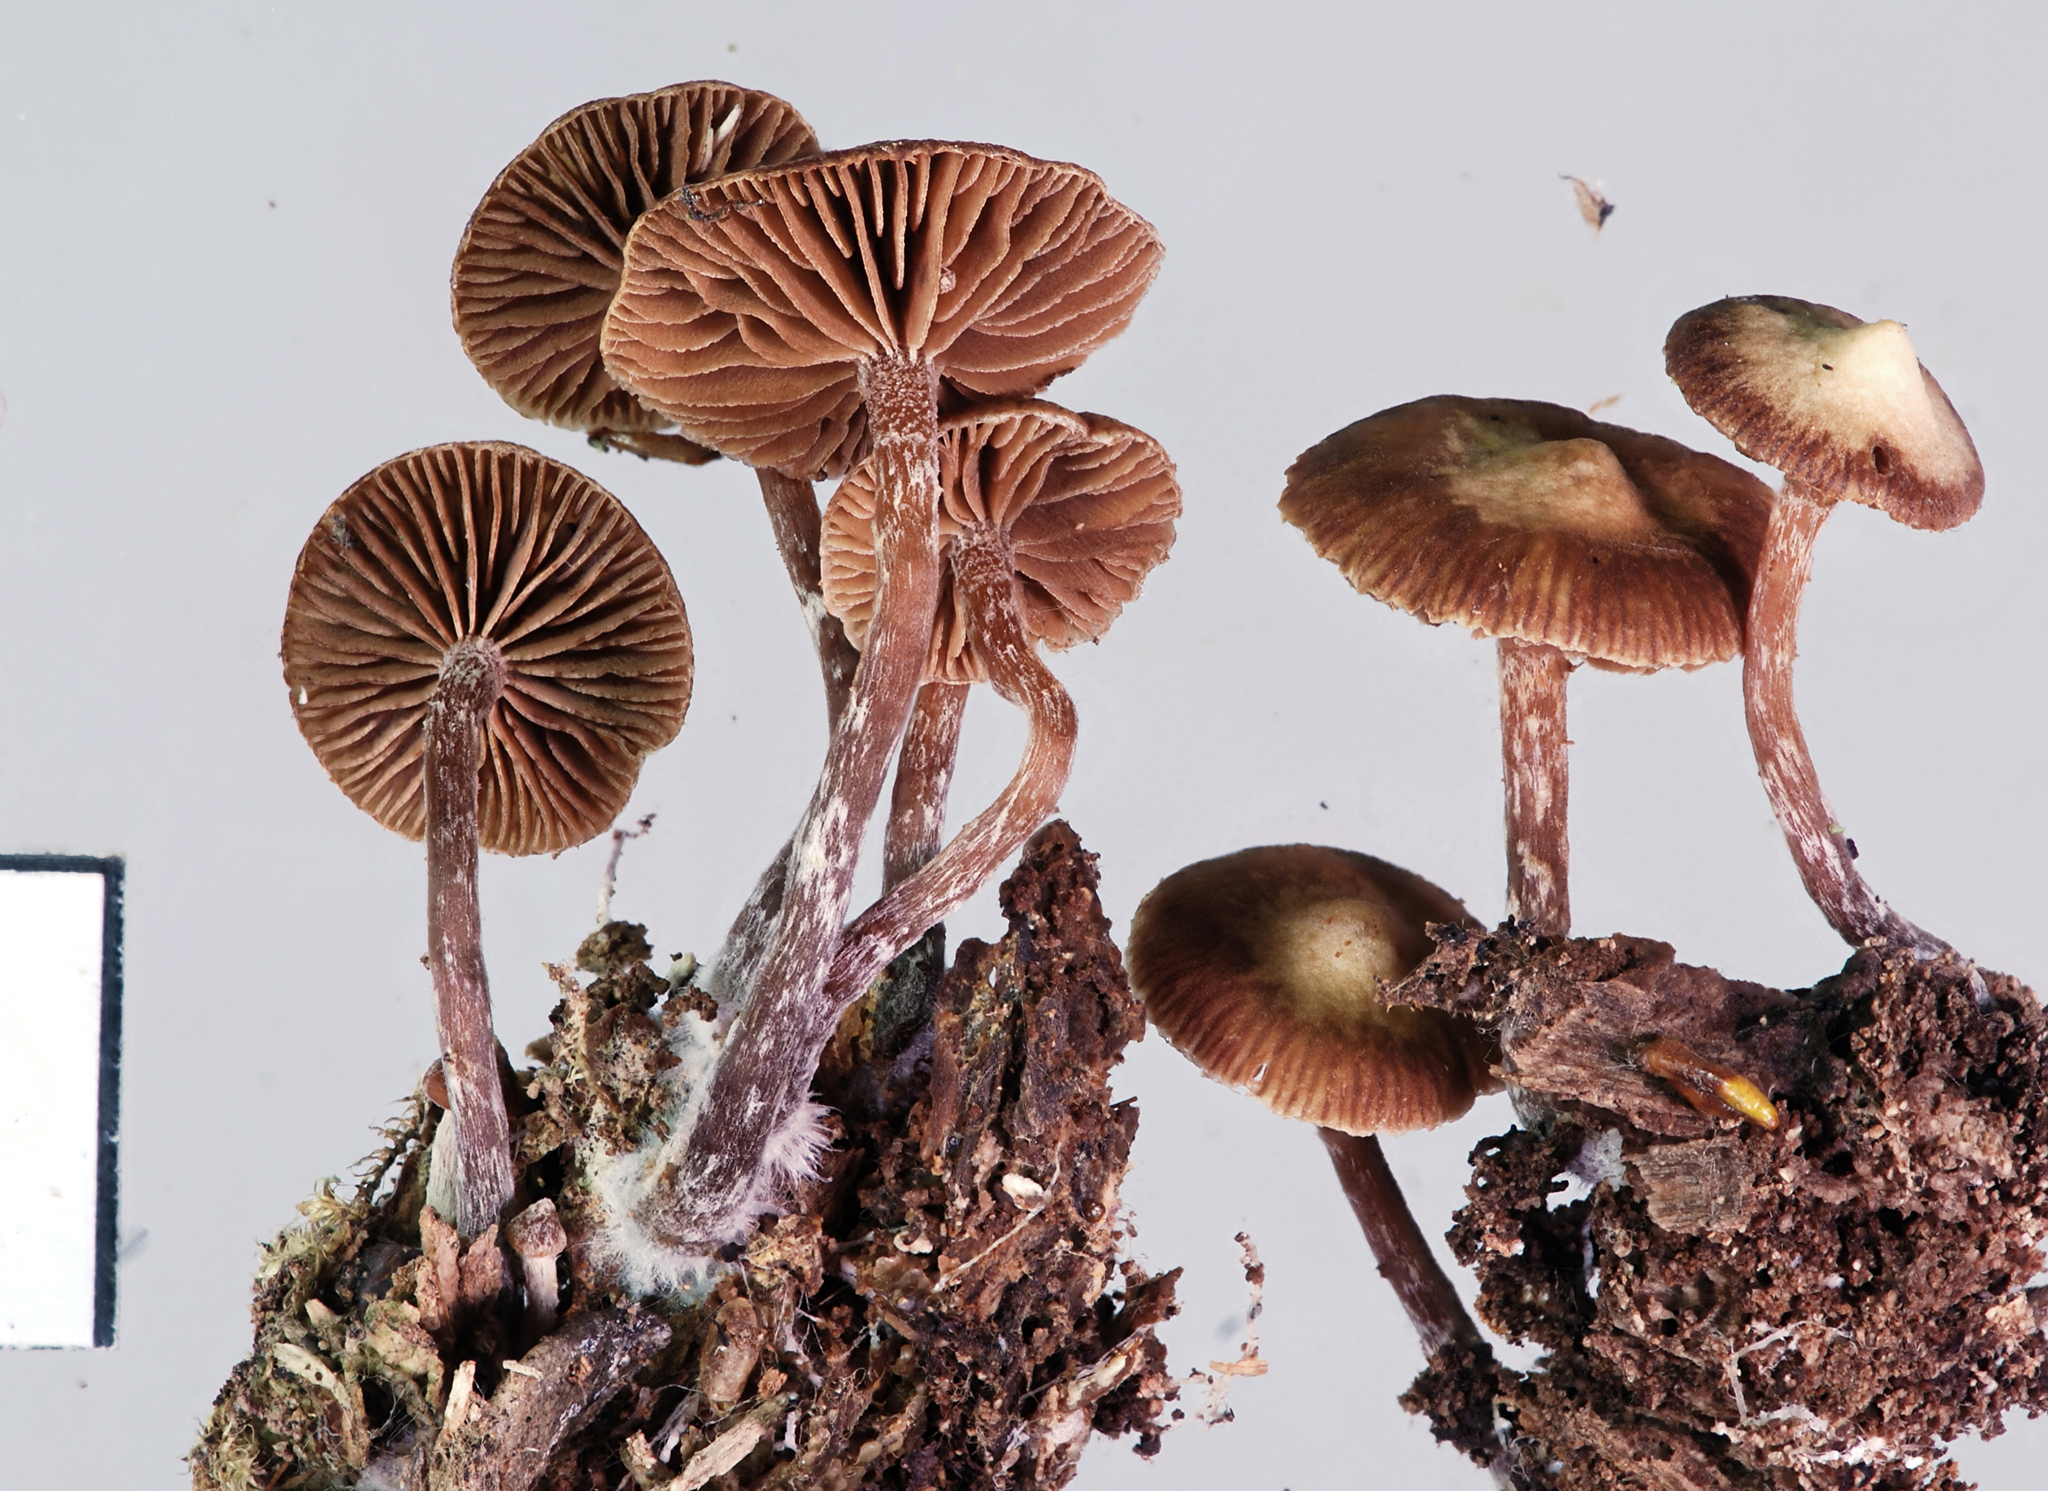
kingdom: Fungi
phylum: Basidiomycota
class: Agaricomycetes
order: Agaricales
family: Strophariaceae
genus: Kuehneromyces
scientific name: Kuehneromyces brunneoalbescens
